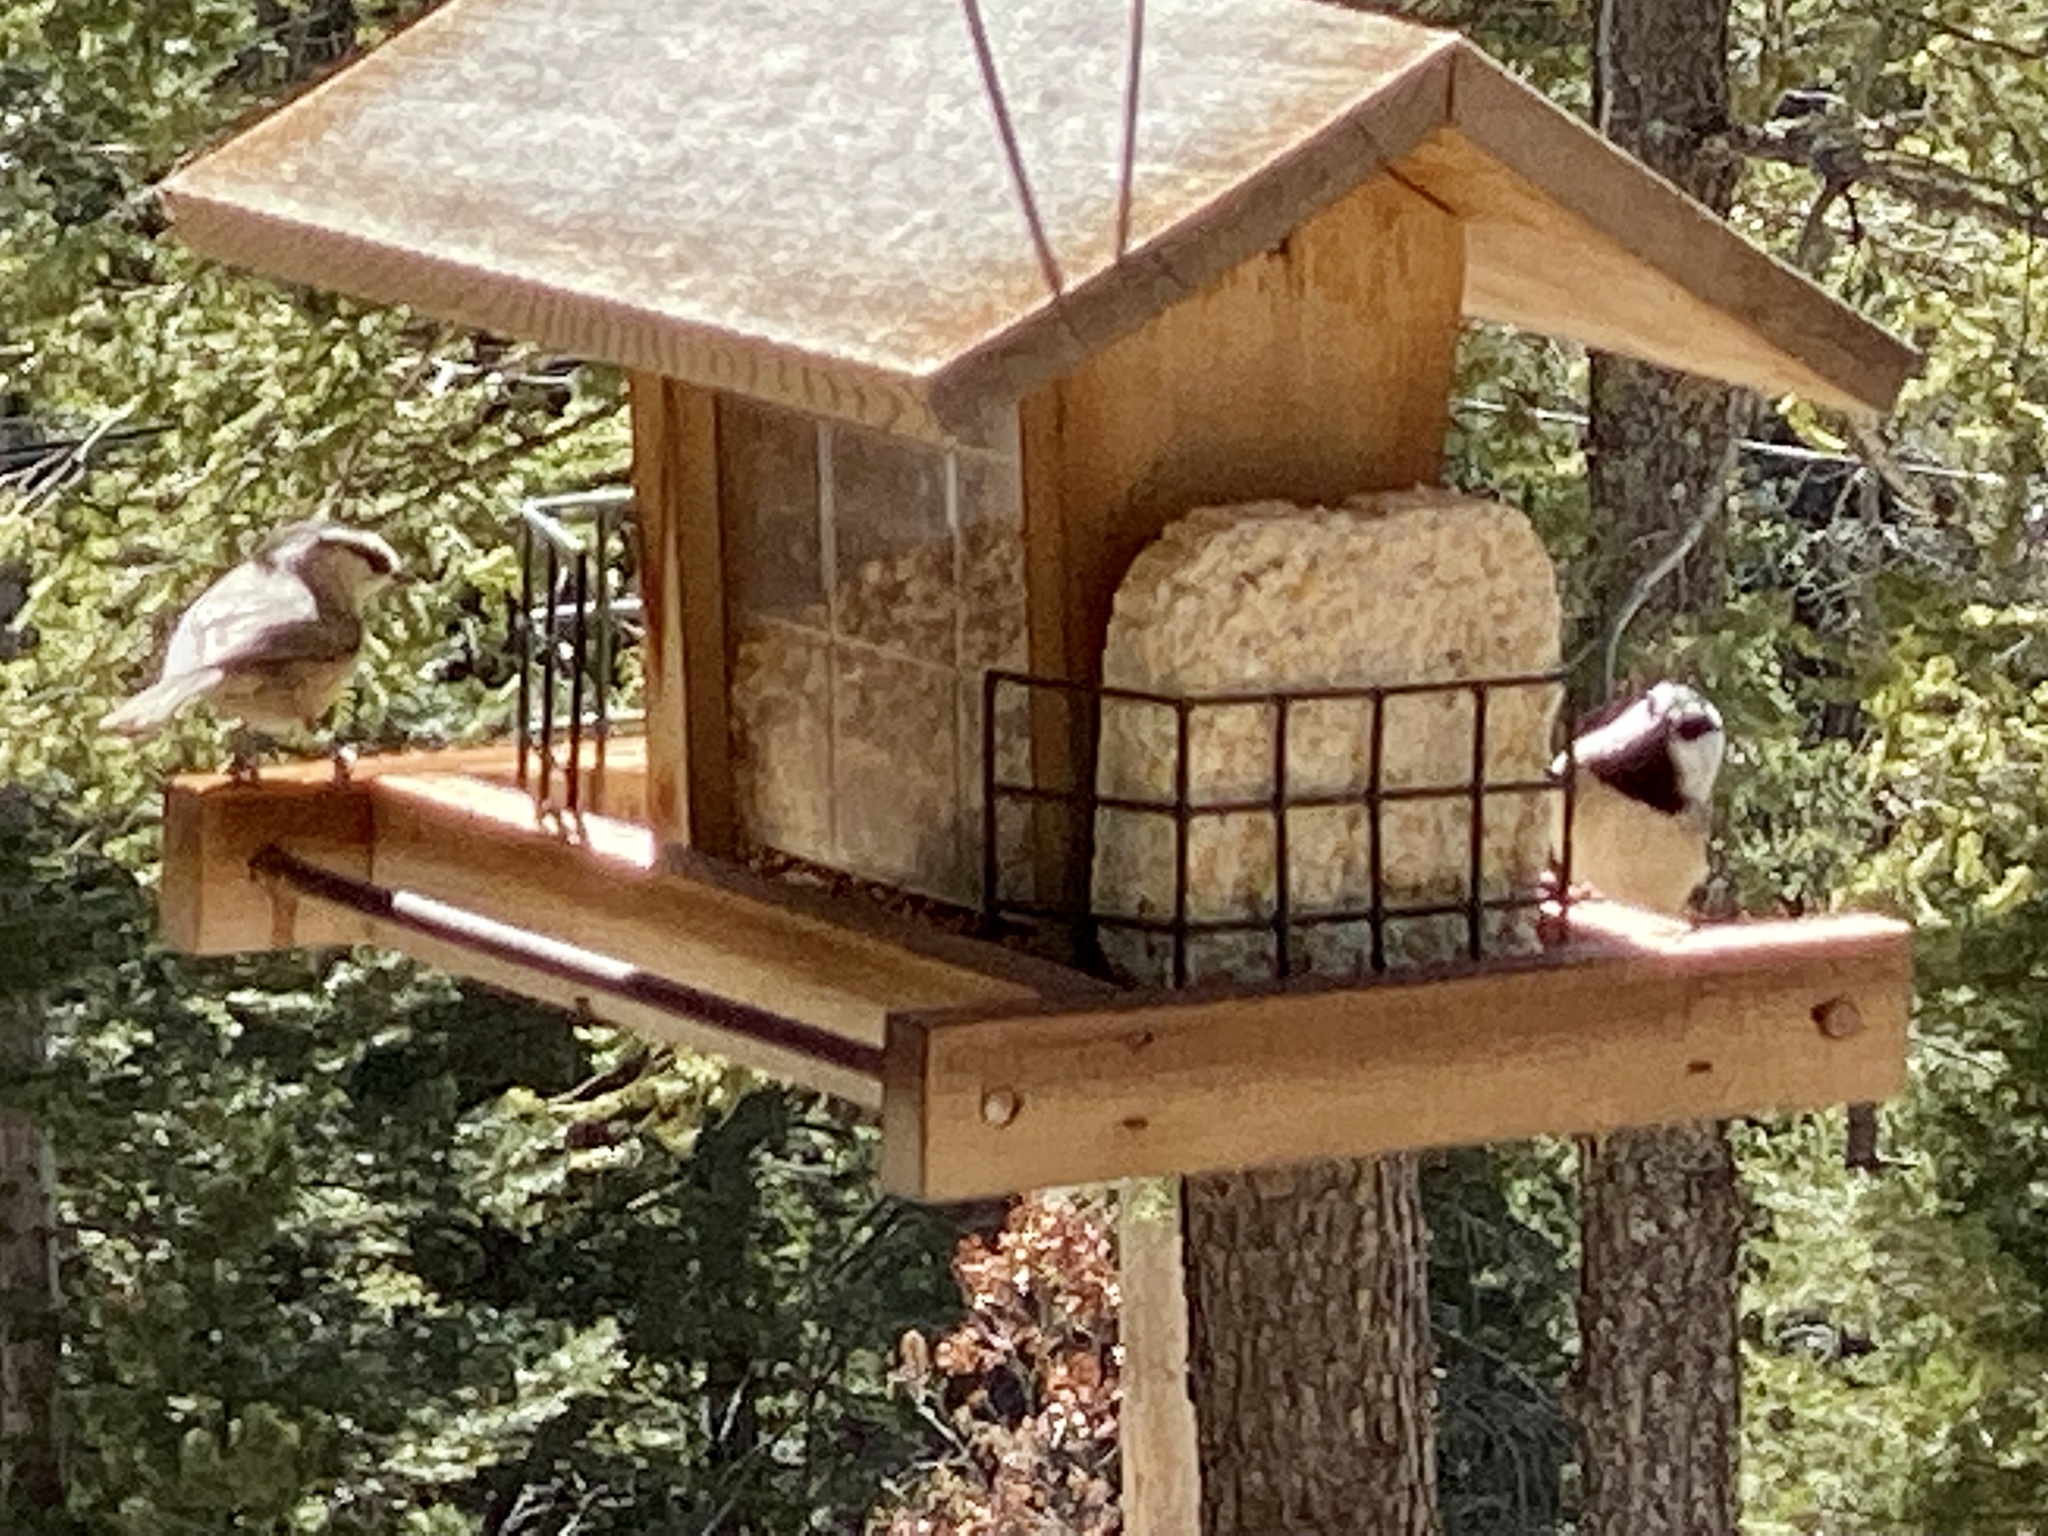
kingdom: Animalia
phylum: Chordata
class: Aves
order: Passeriformes
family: Paridae
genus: Poecile
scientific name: Poecile gambeli
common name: Mountain chickadee
